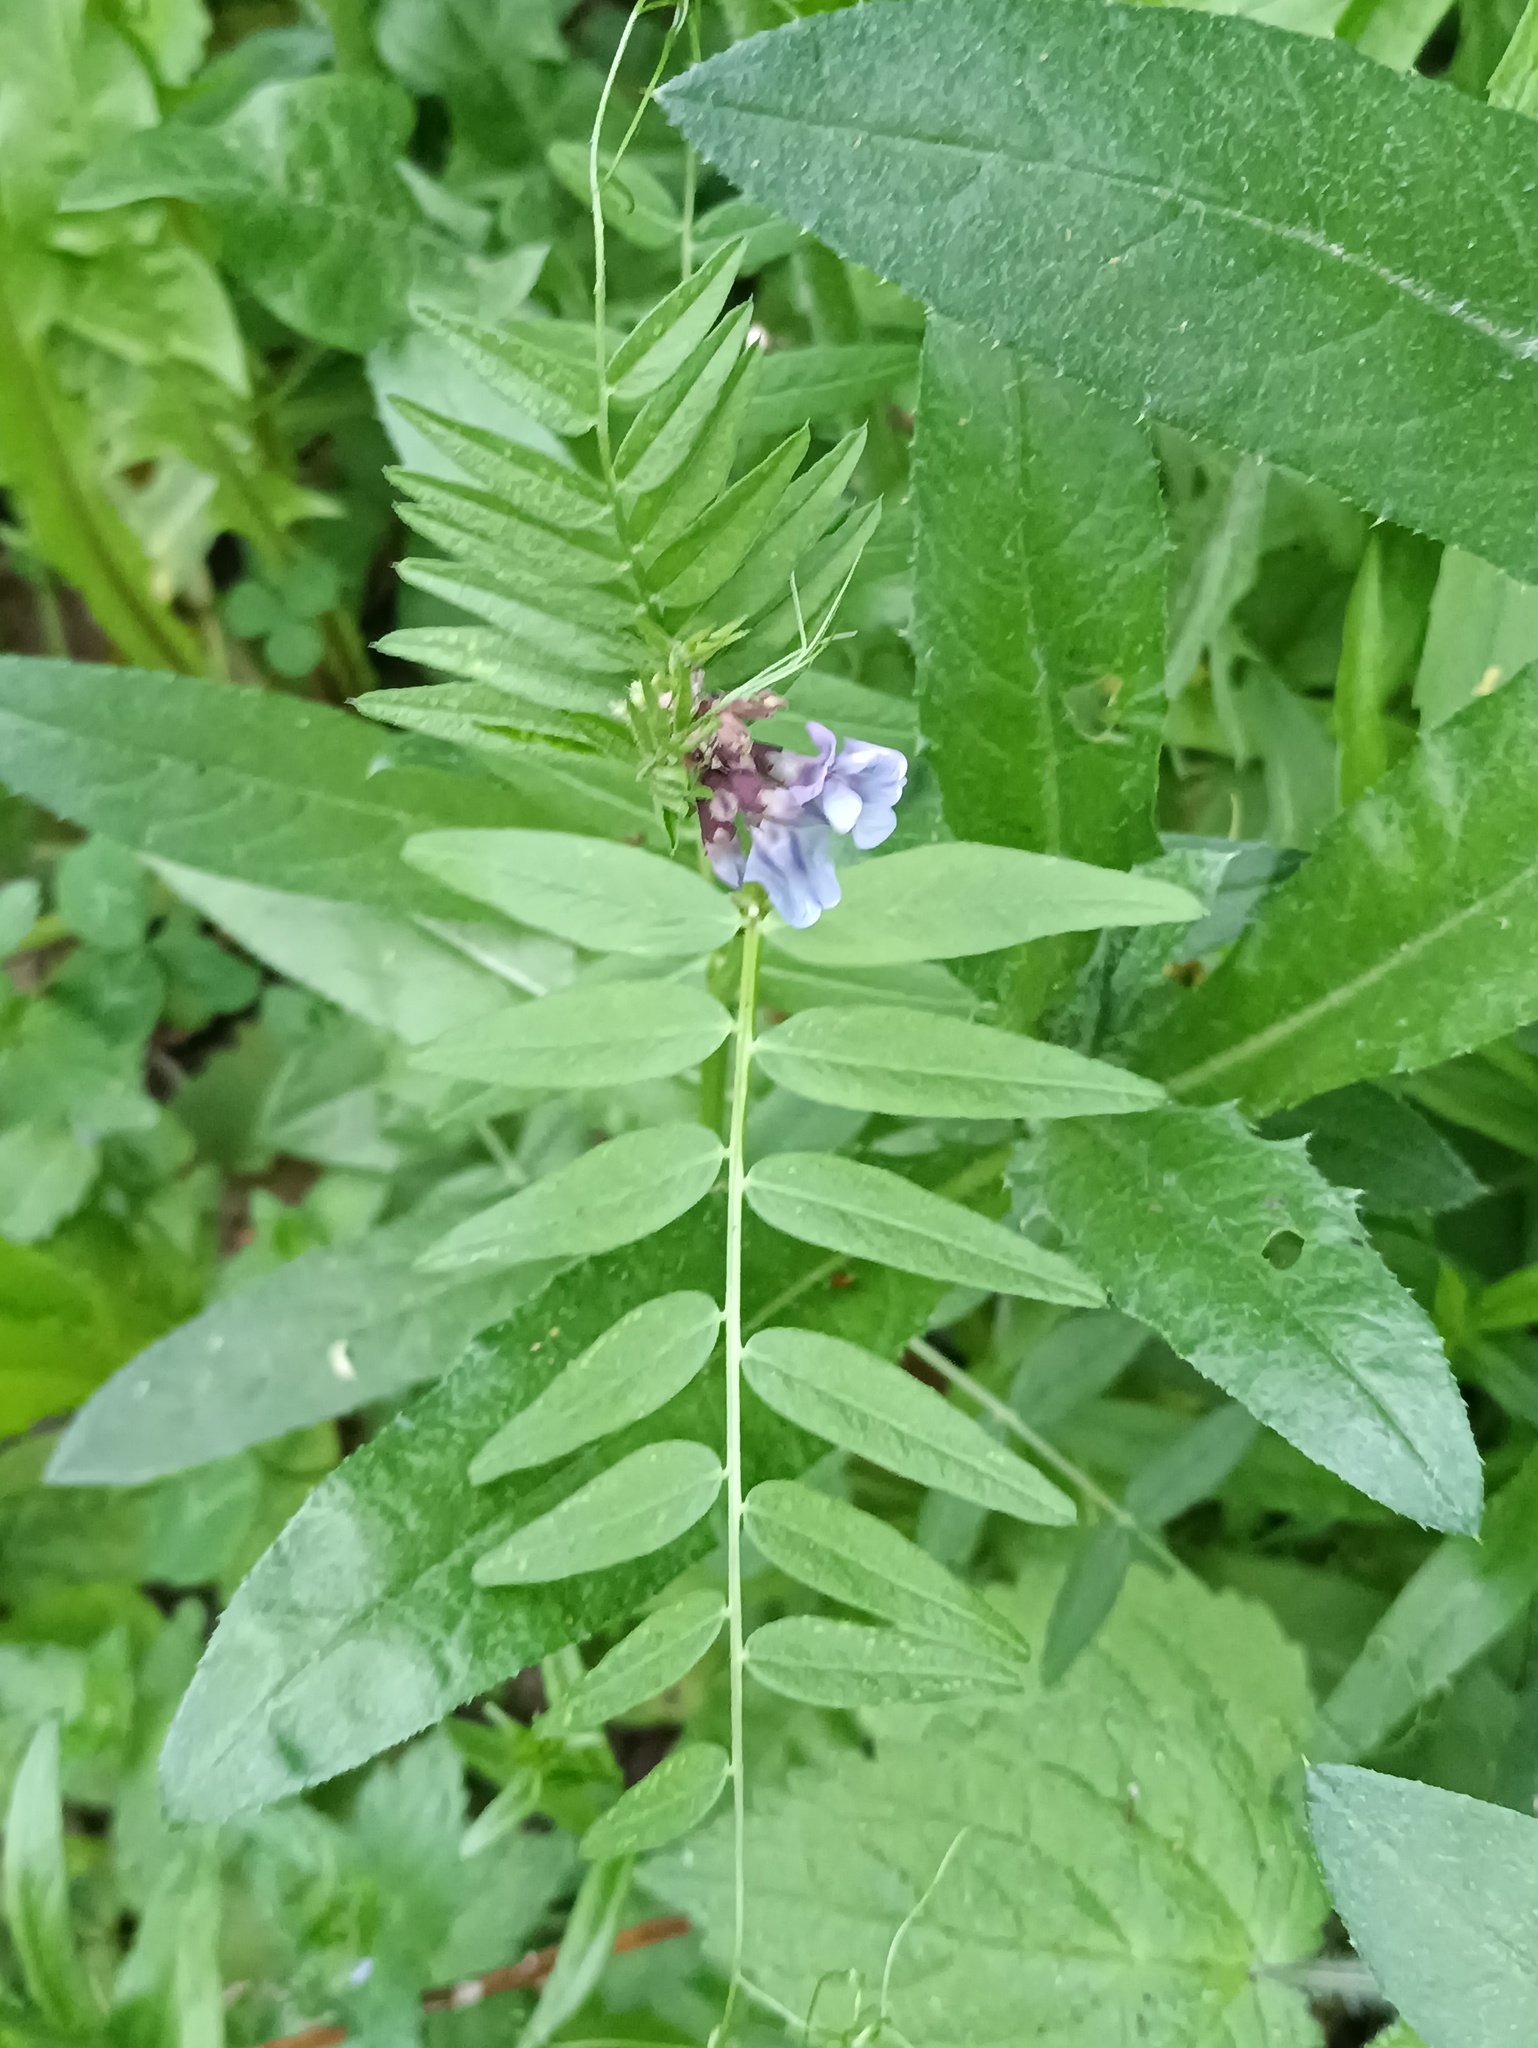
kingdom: Plantae
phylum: Tracheophyta
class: Magnoliopsida
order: Fabales
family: Fabaceae
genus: Vicia
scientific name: Vicia sepium
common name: Bush vetch
